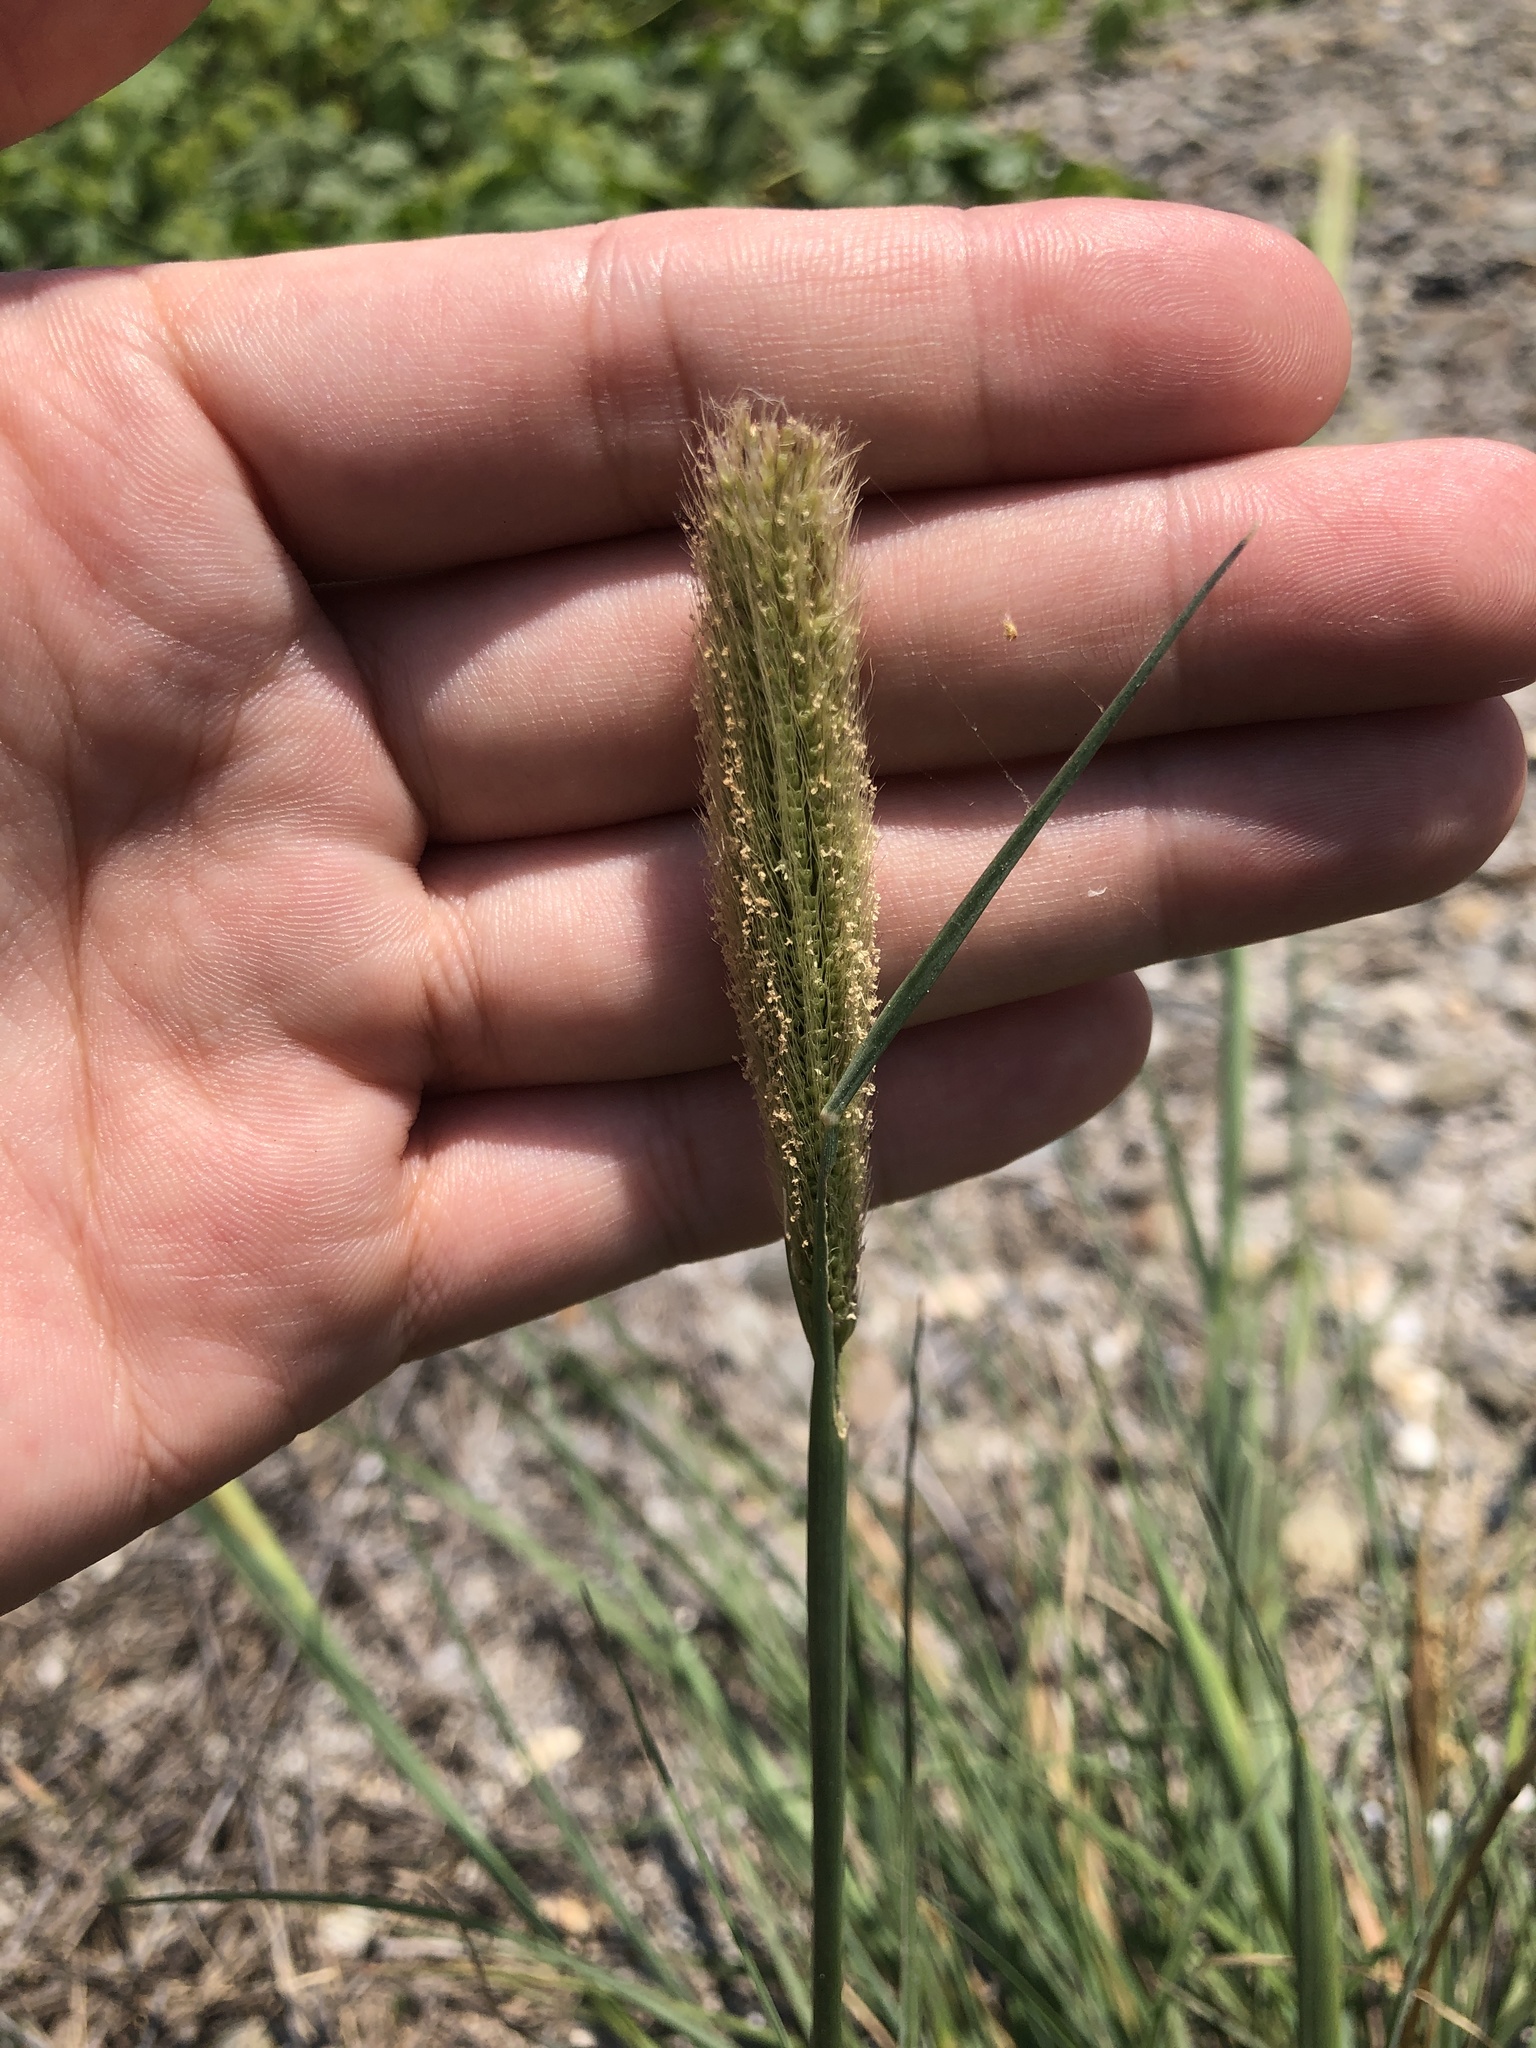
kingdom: Plantae
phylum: Tracheophyta
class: Liliopsida
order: Poales
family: Poaceae
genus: Chloris
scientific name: Chloris formosana
